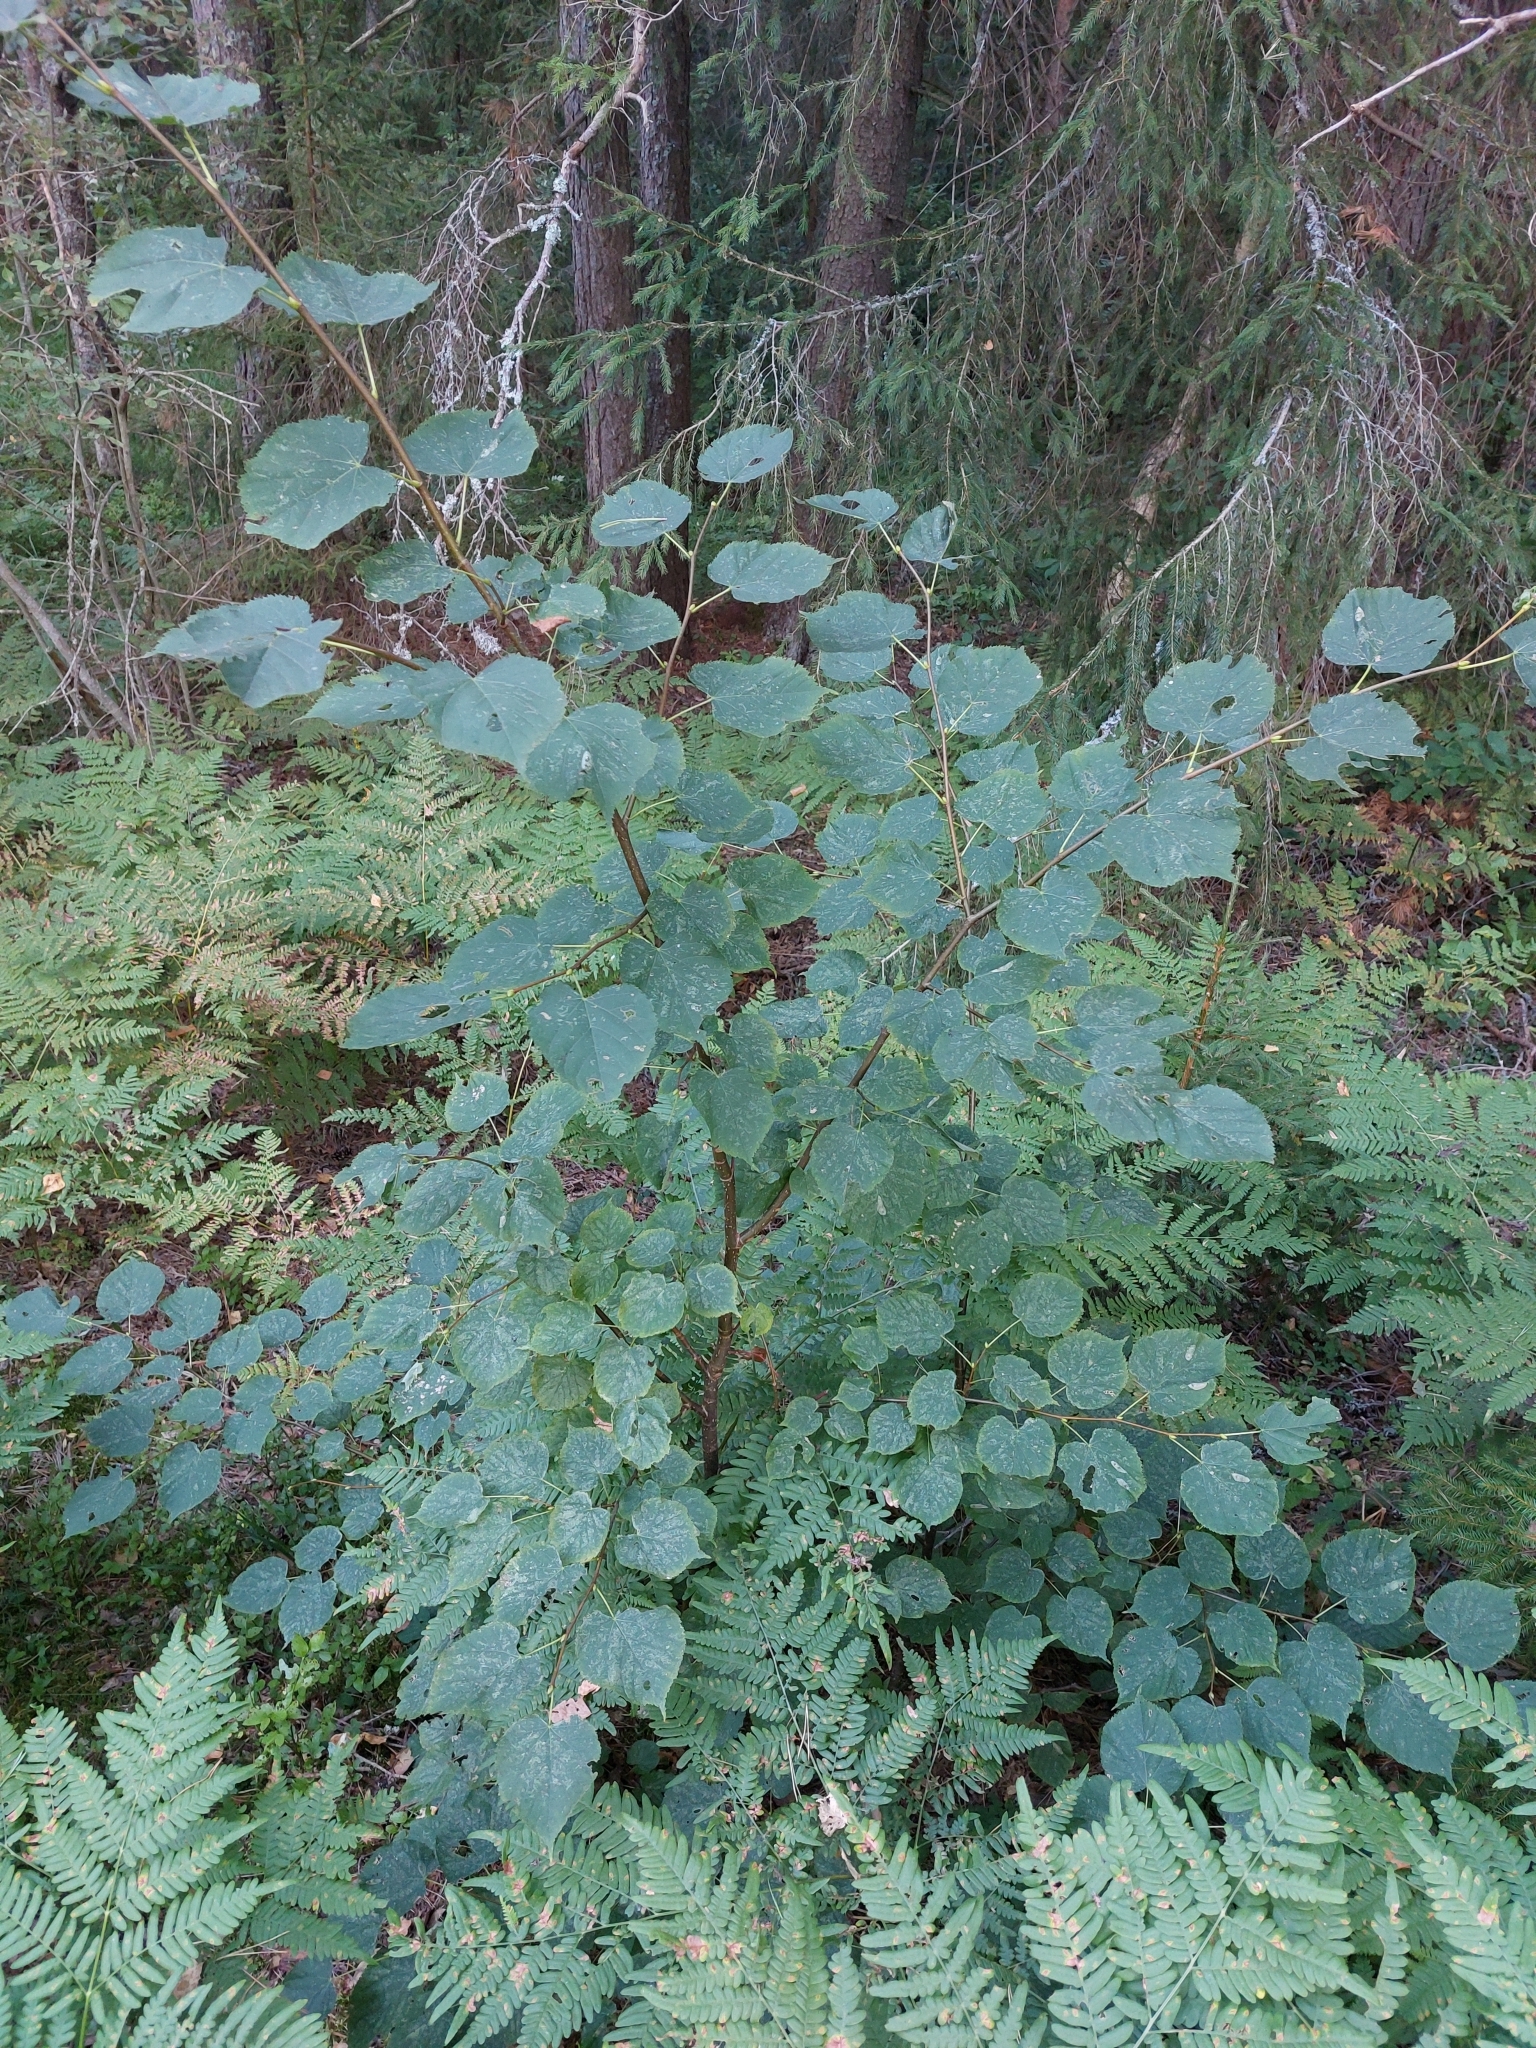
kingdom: Plantae
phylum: Tracheophyta
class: Magnoliopsida
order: Malvales
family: Malvaceae
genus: Tilia
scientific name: Tilia cordata
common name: Small-leaved lime
